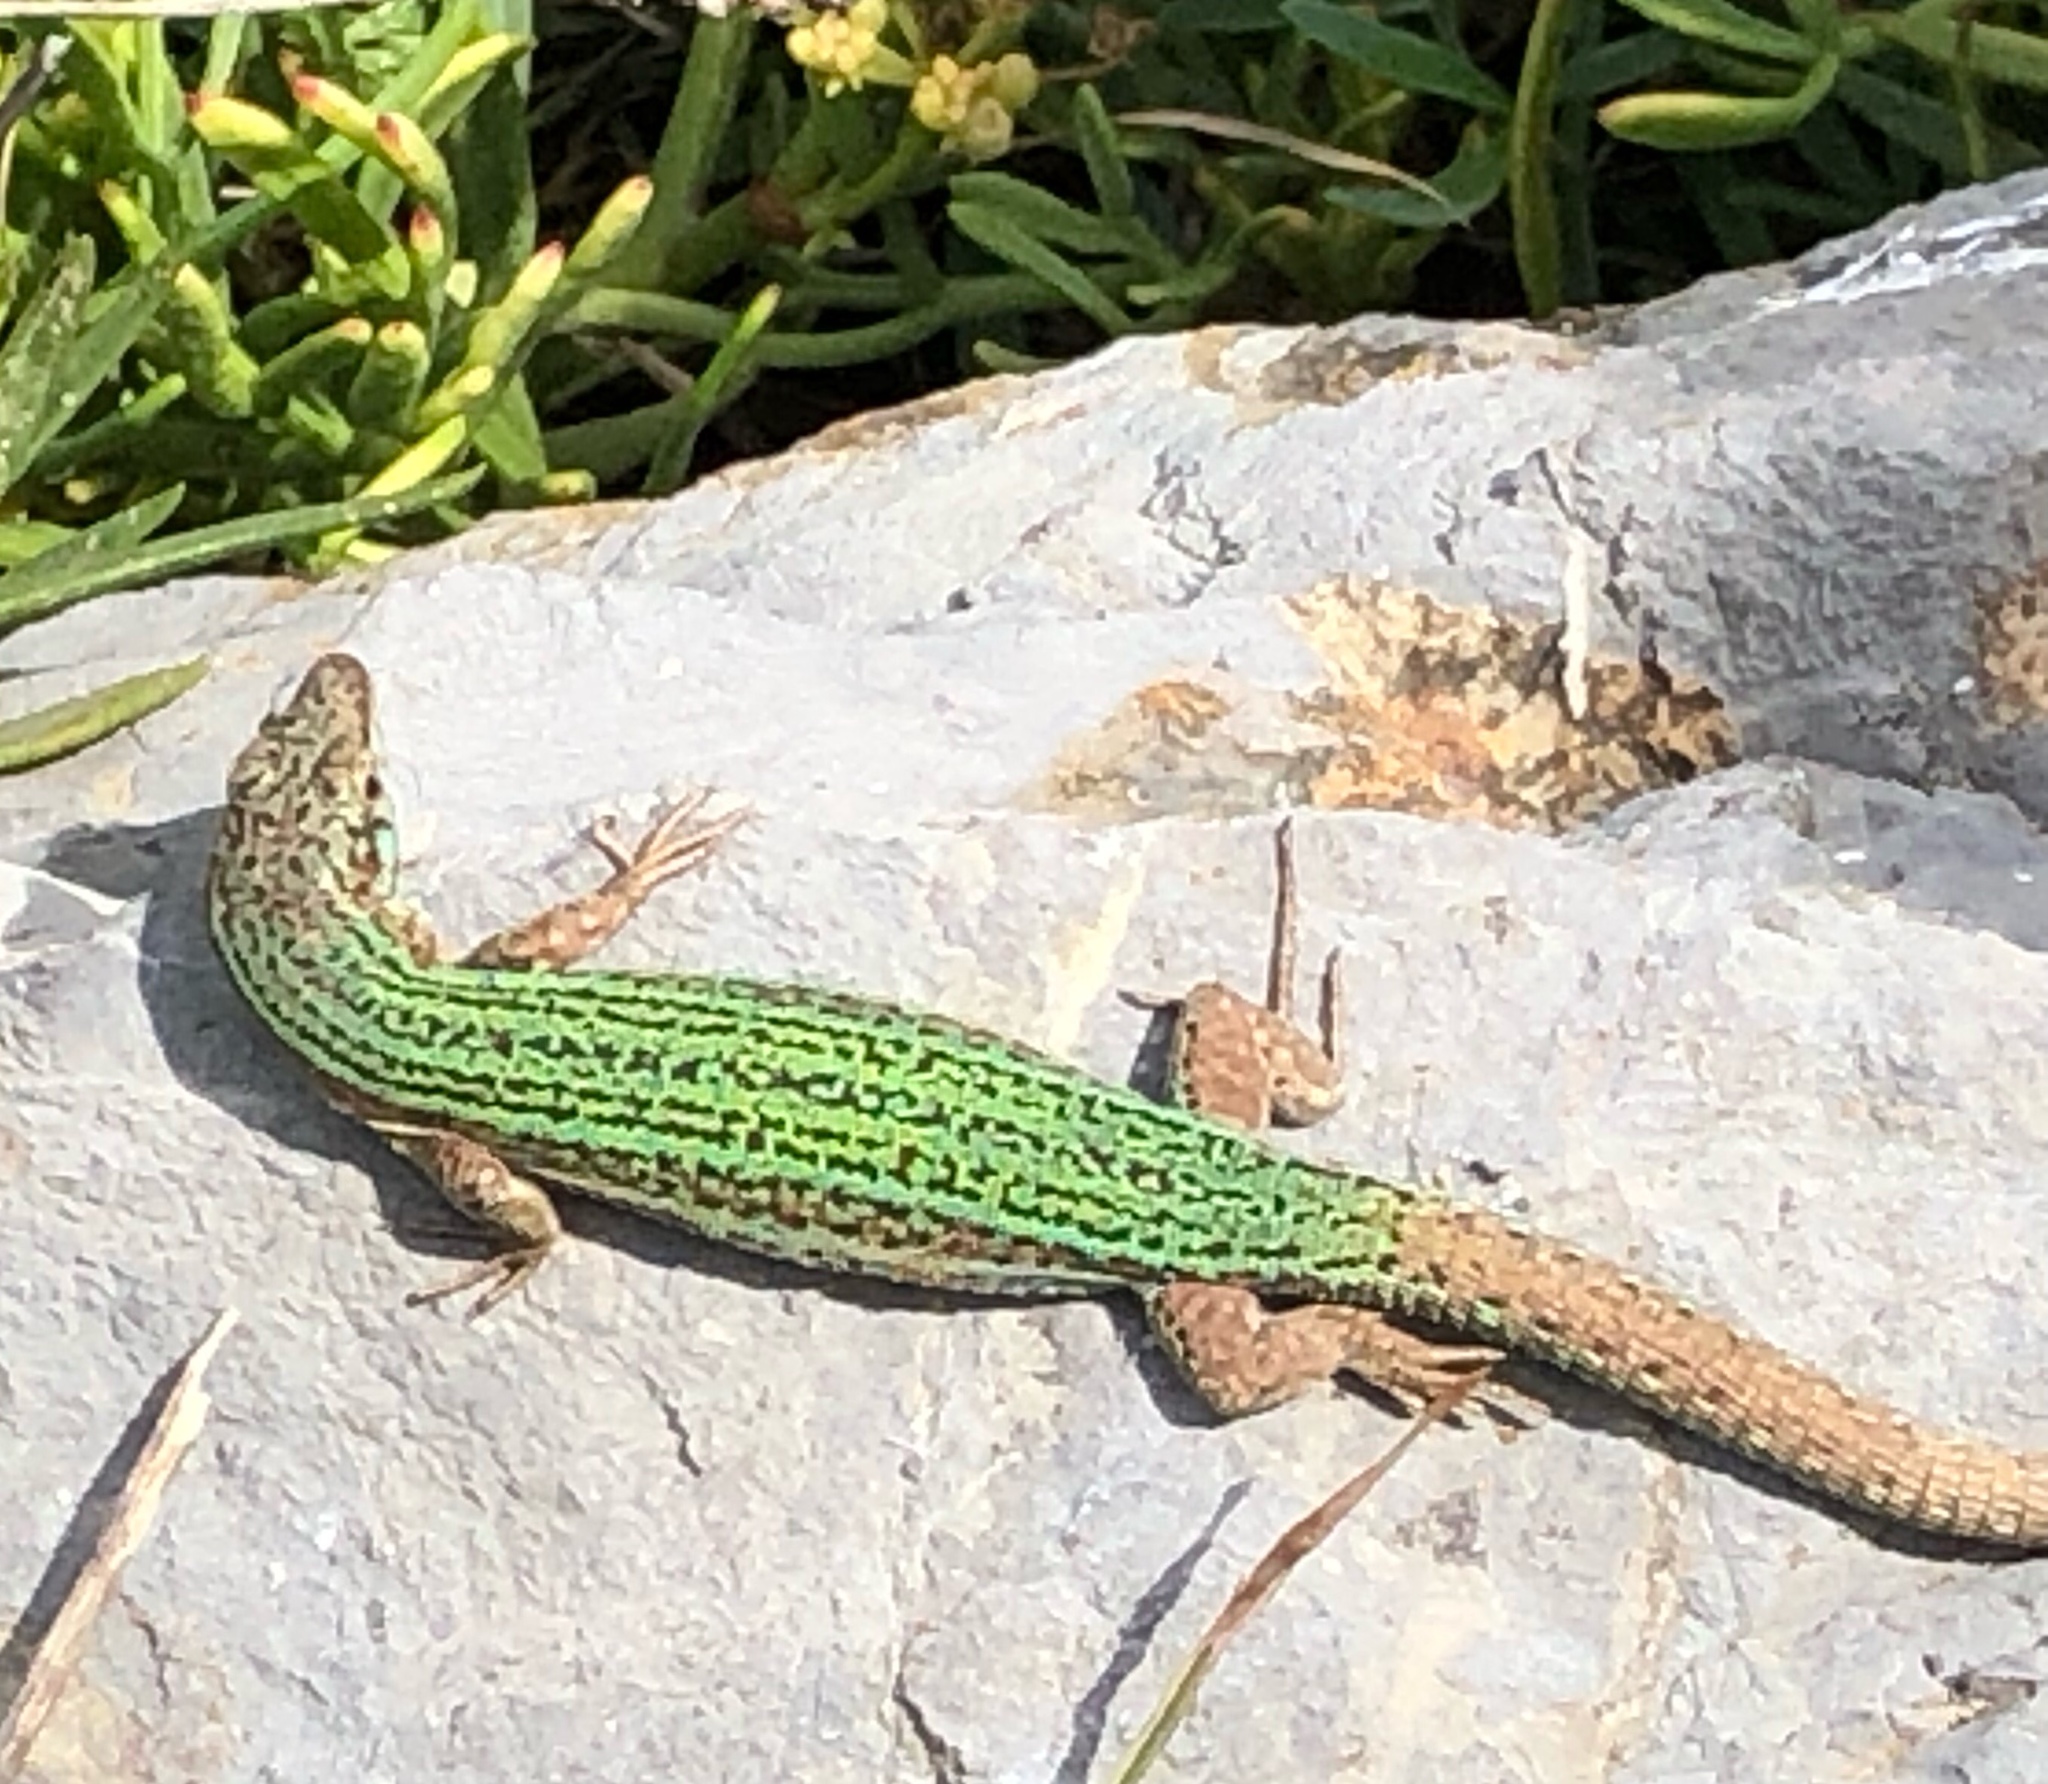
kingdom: Animalia
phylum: Chordata
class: Squamata
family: Lacertidae
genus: Podarcis
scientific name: Podarcis pityusensis
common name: Ibiza wall lizard
